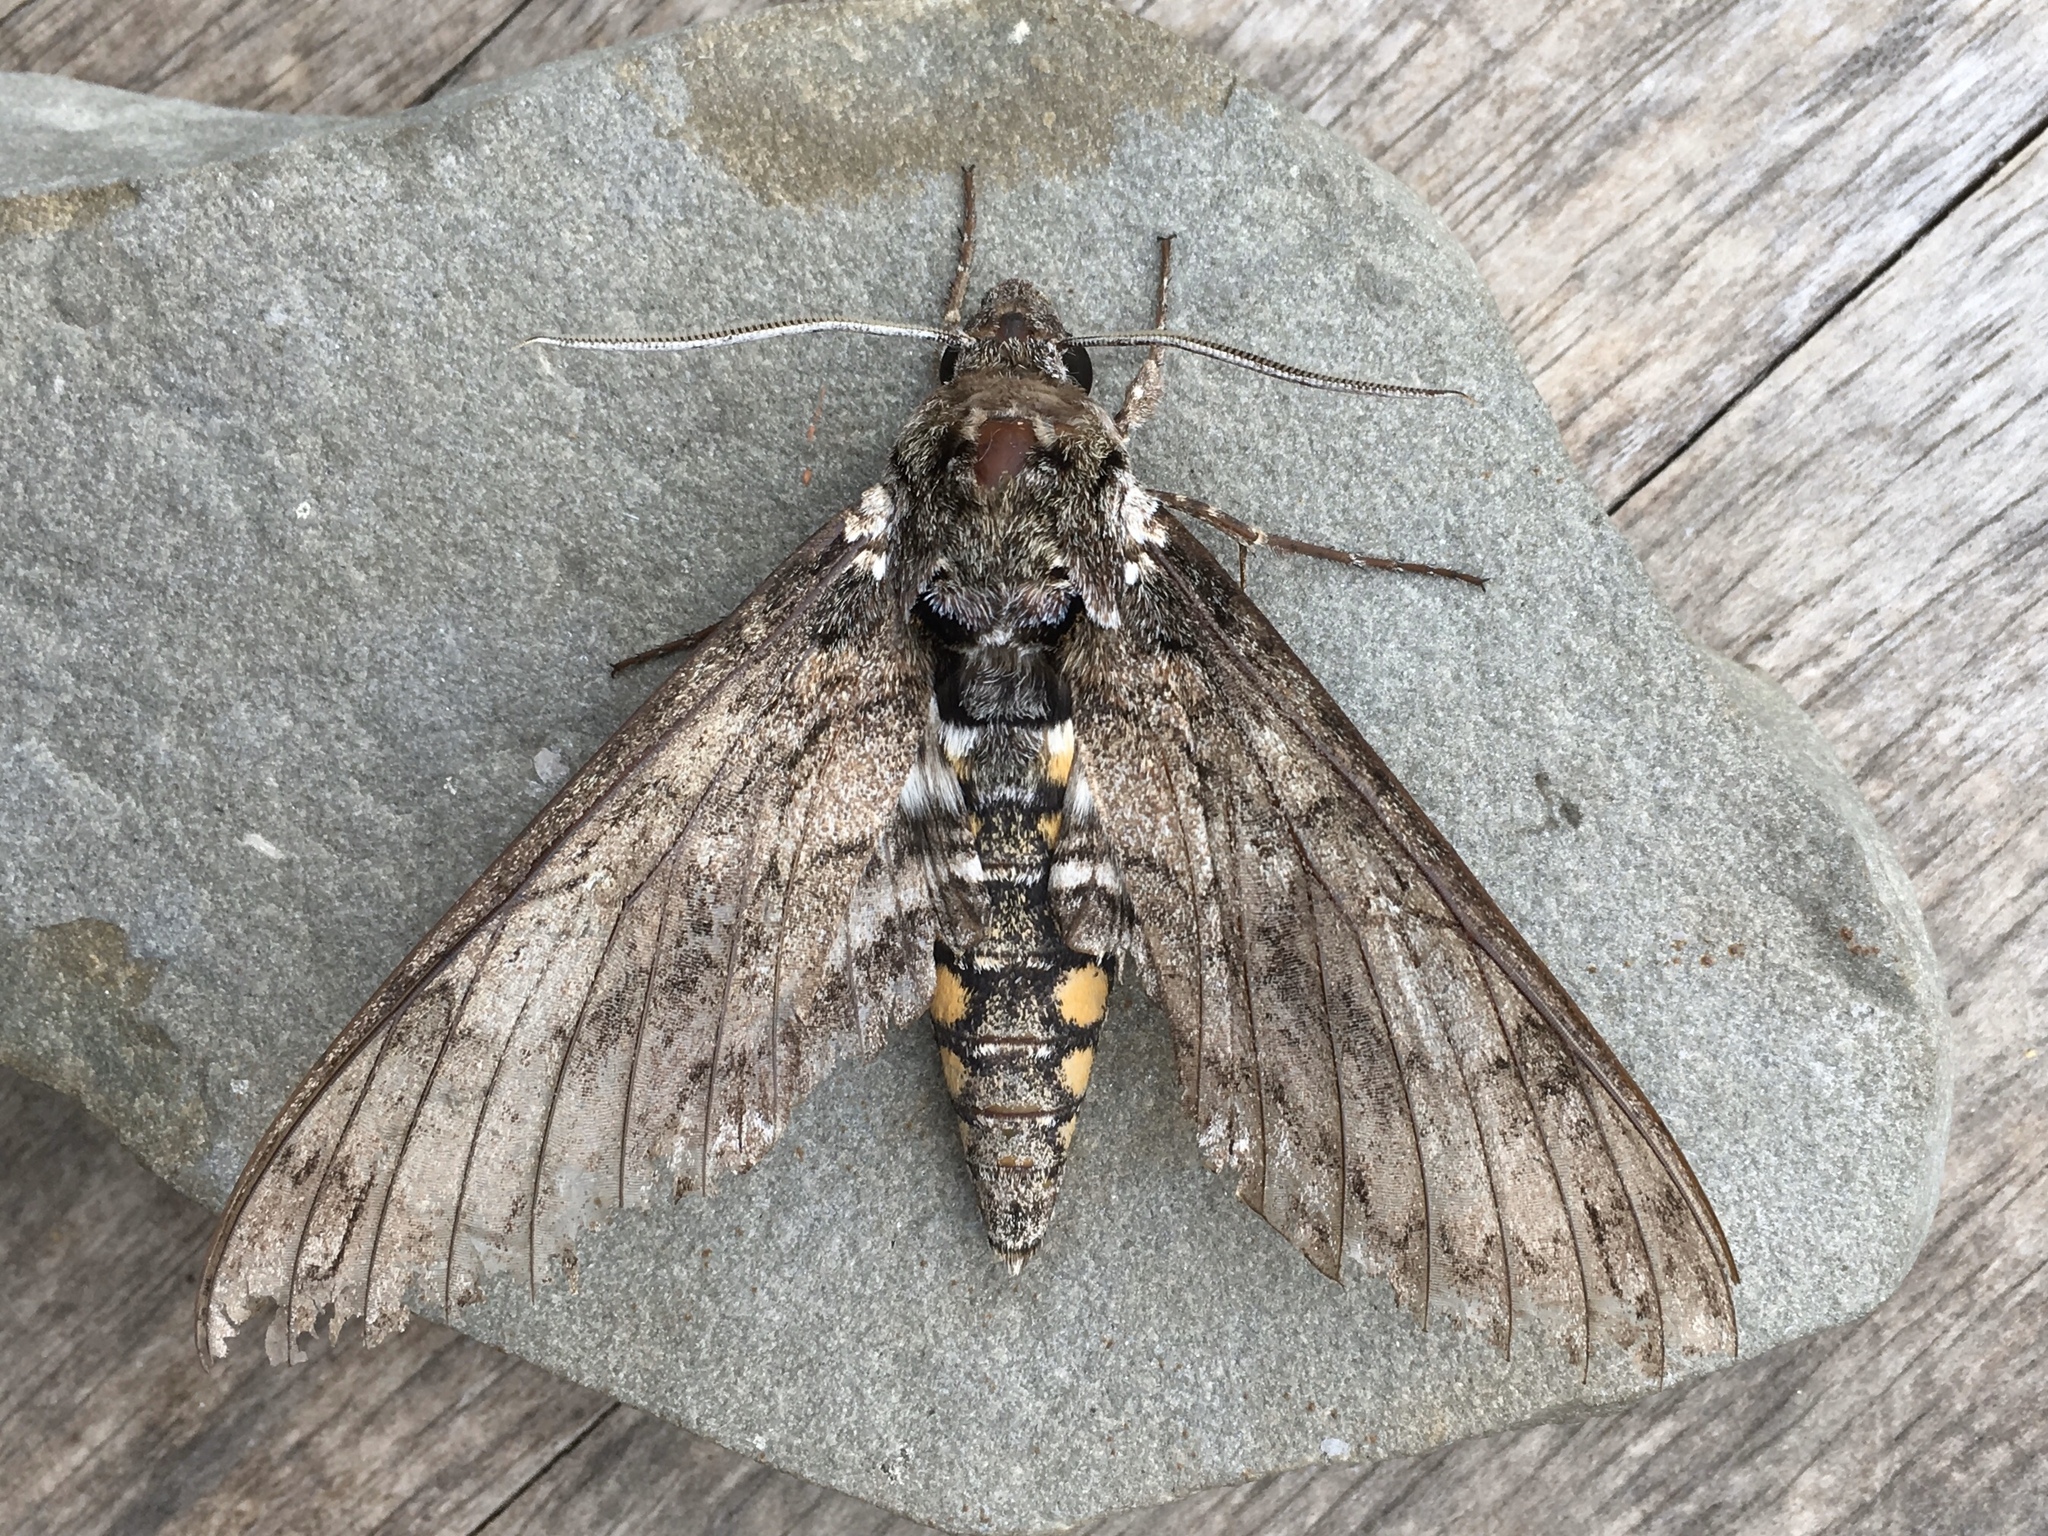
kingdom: Animalia
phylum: Arthropoda
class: Insecta
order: Lepidoptera
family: Sphingidae
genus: Manduca
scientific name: Manduca sexta
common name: Carolina sphinx
